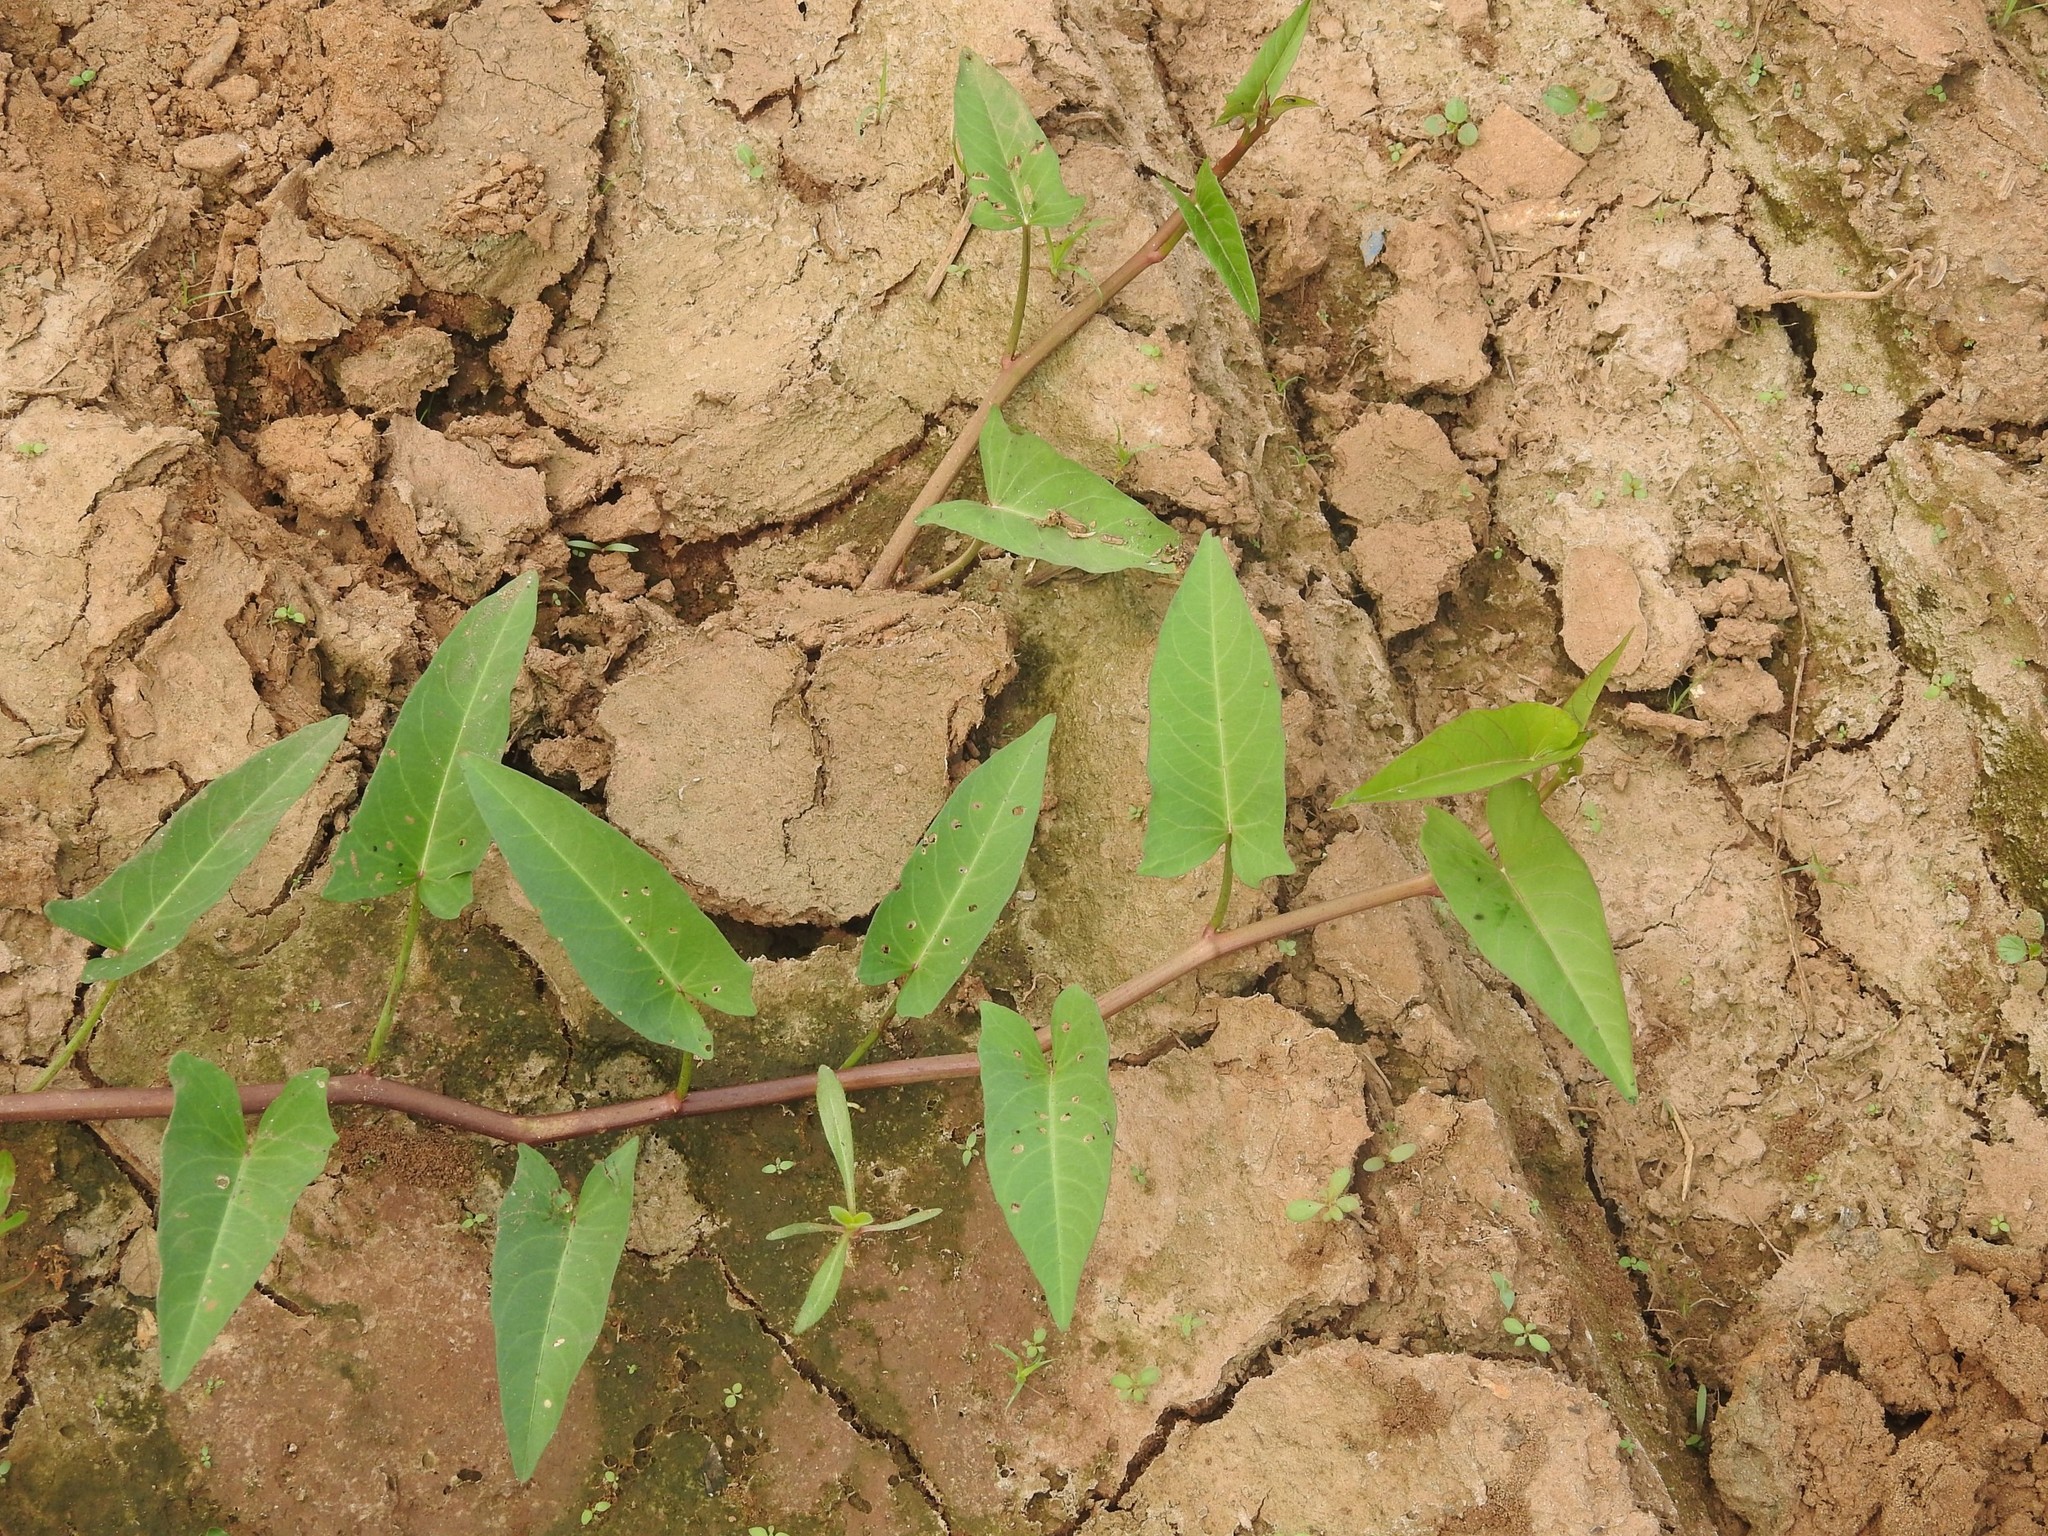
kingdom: Plantae
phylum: Tracheophyta
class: Magnoliopsida
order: Solanales
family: Convolvulaceae
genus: Ipomoea
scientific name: Ipomoea aquatica
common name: Swamp morning-glory
